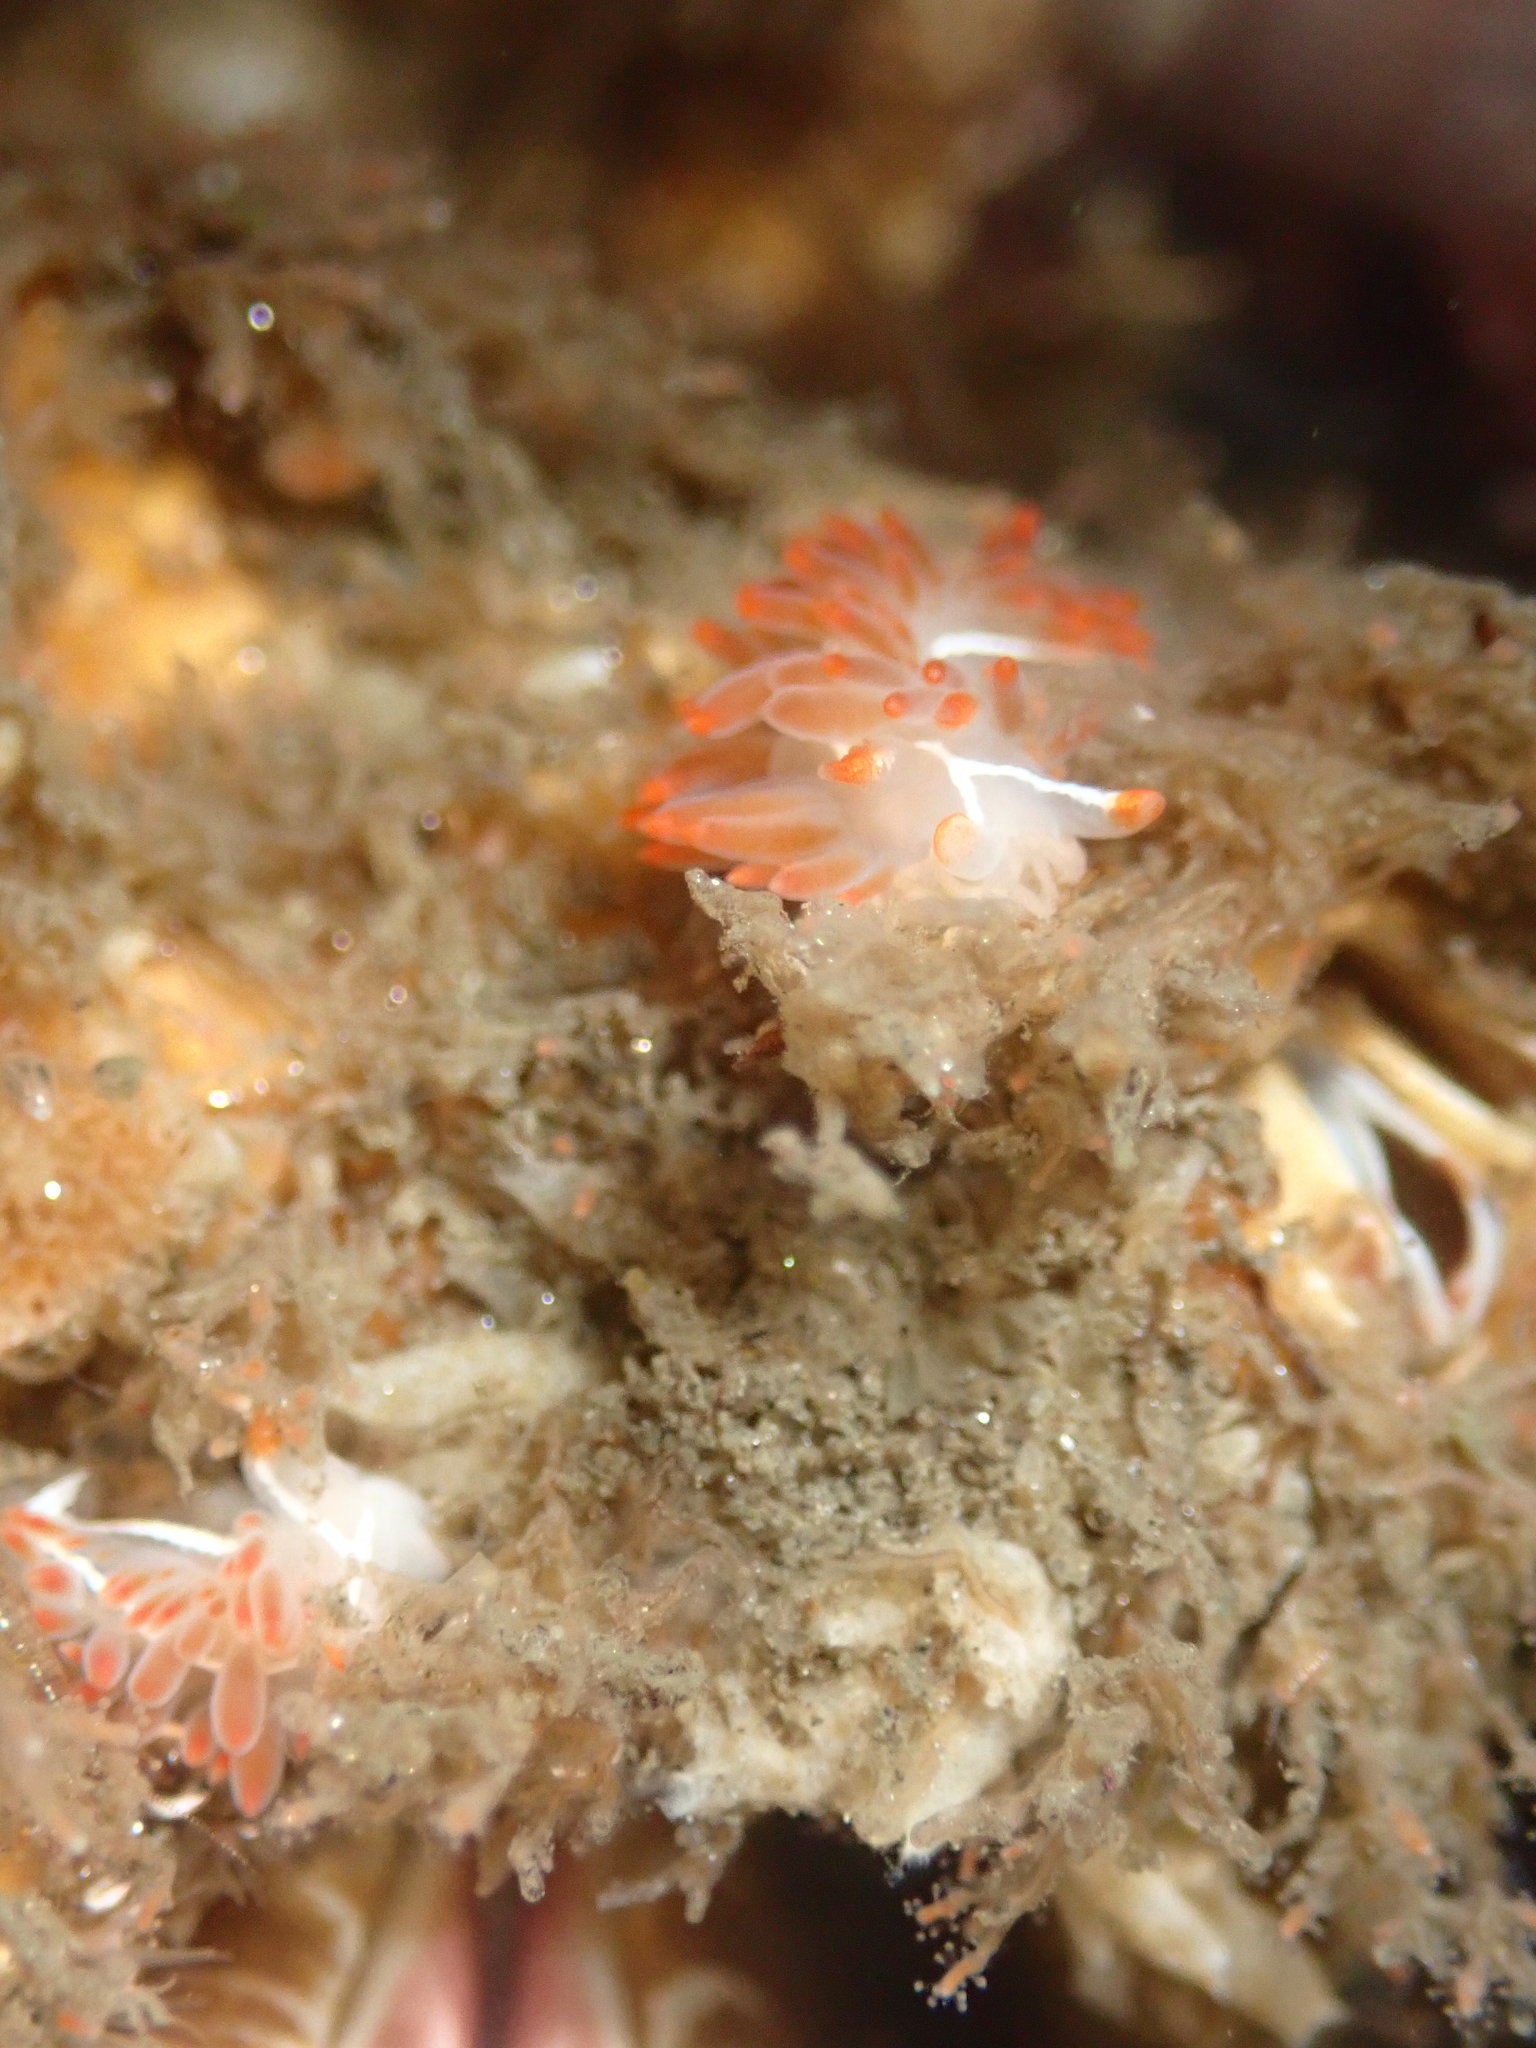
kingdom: Animalia
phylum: Mollusca
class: Gastropoda
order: Nudibranchia
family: Coryphellidae
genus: Coryphella
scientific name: Coryphella trilineata
